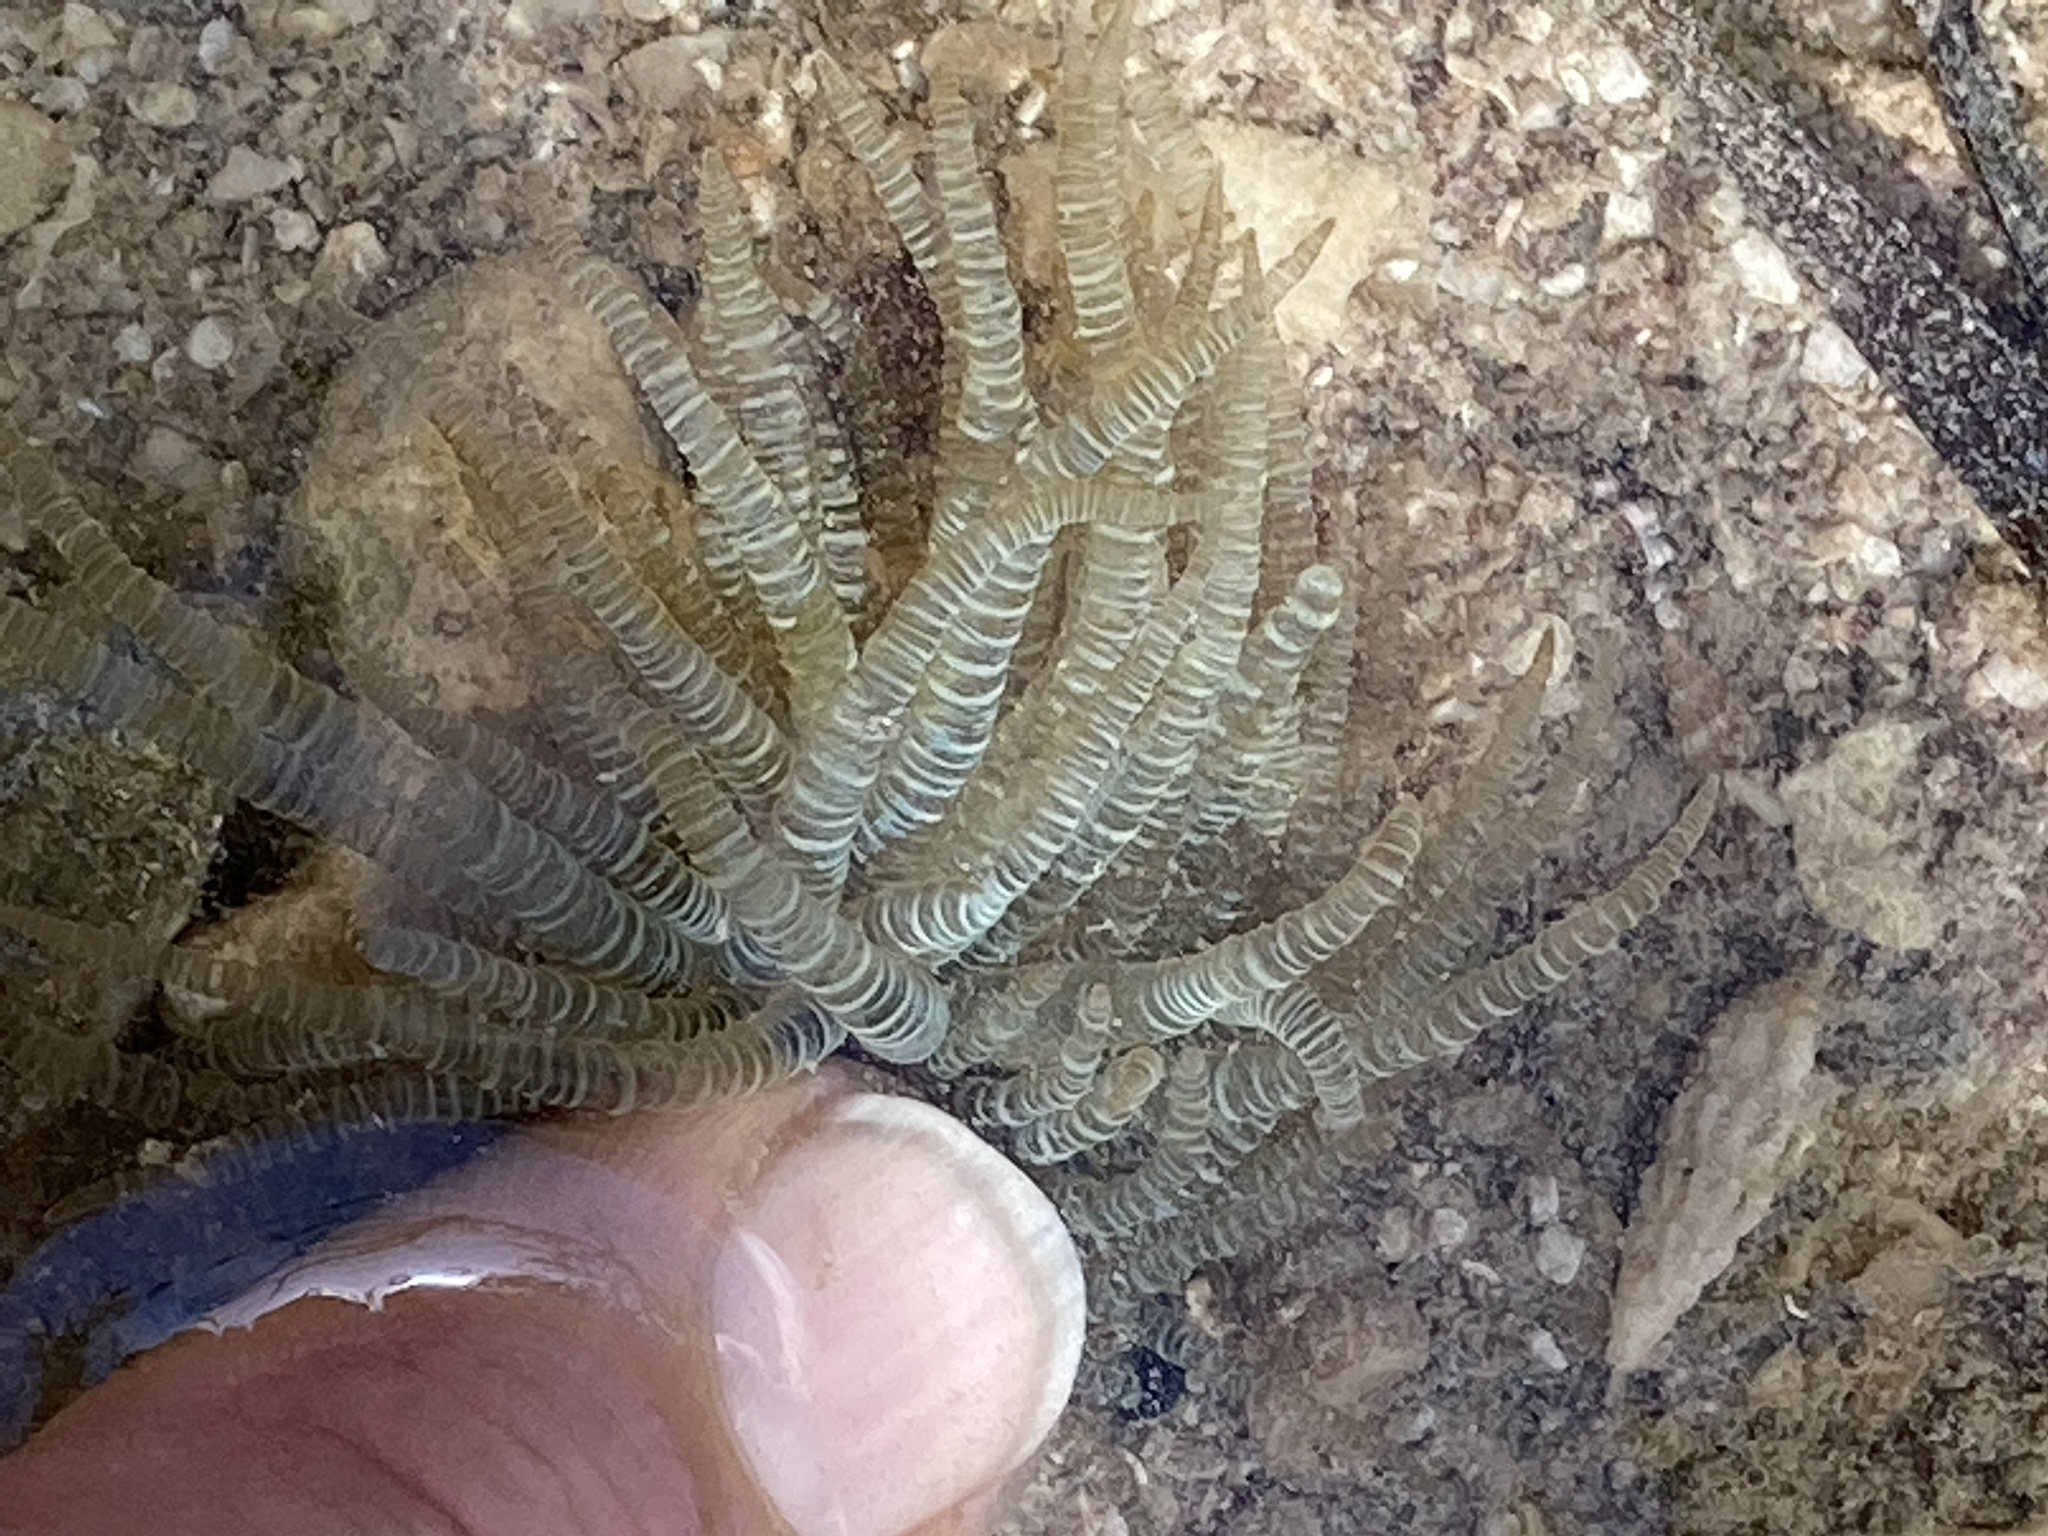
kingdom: Animalia
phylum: Cnidaria
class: Anthozoa
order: Actiniaria
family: Aiptasiidae
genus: Bartholomea
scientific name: Bartholomea annulata
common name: Corkscrew anemone
